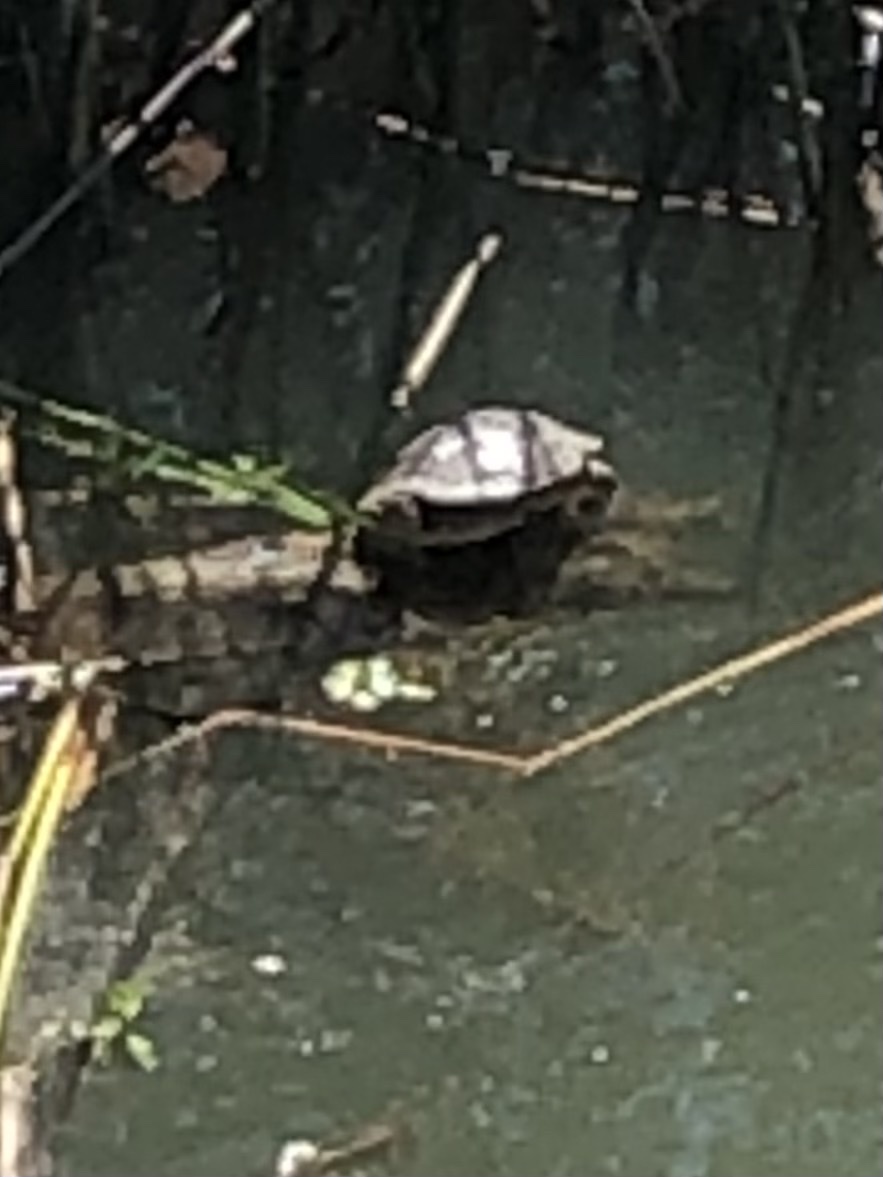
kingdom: Animalia
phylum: Chordata
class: Testudines
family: Emydidae
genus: Trachemys
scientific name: Trachemys scripta
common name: Slider
